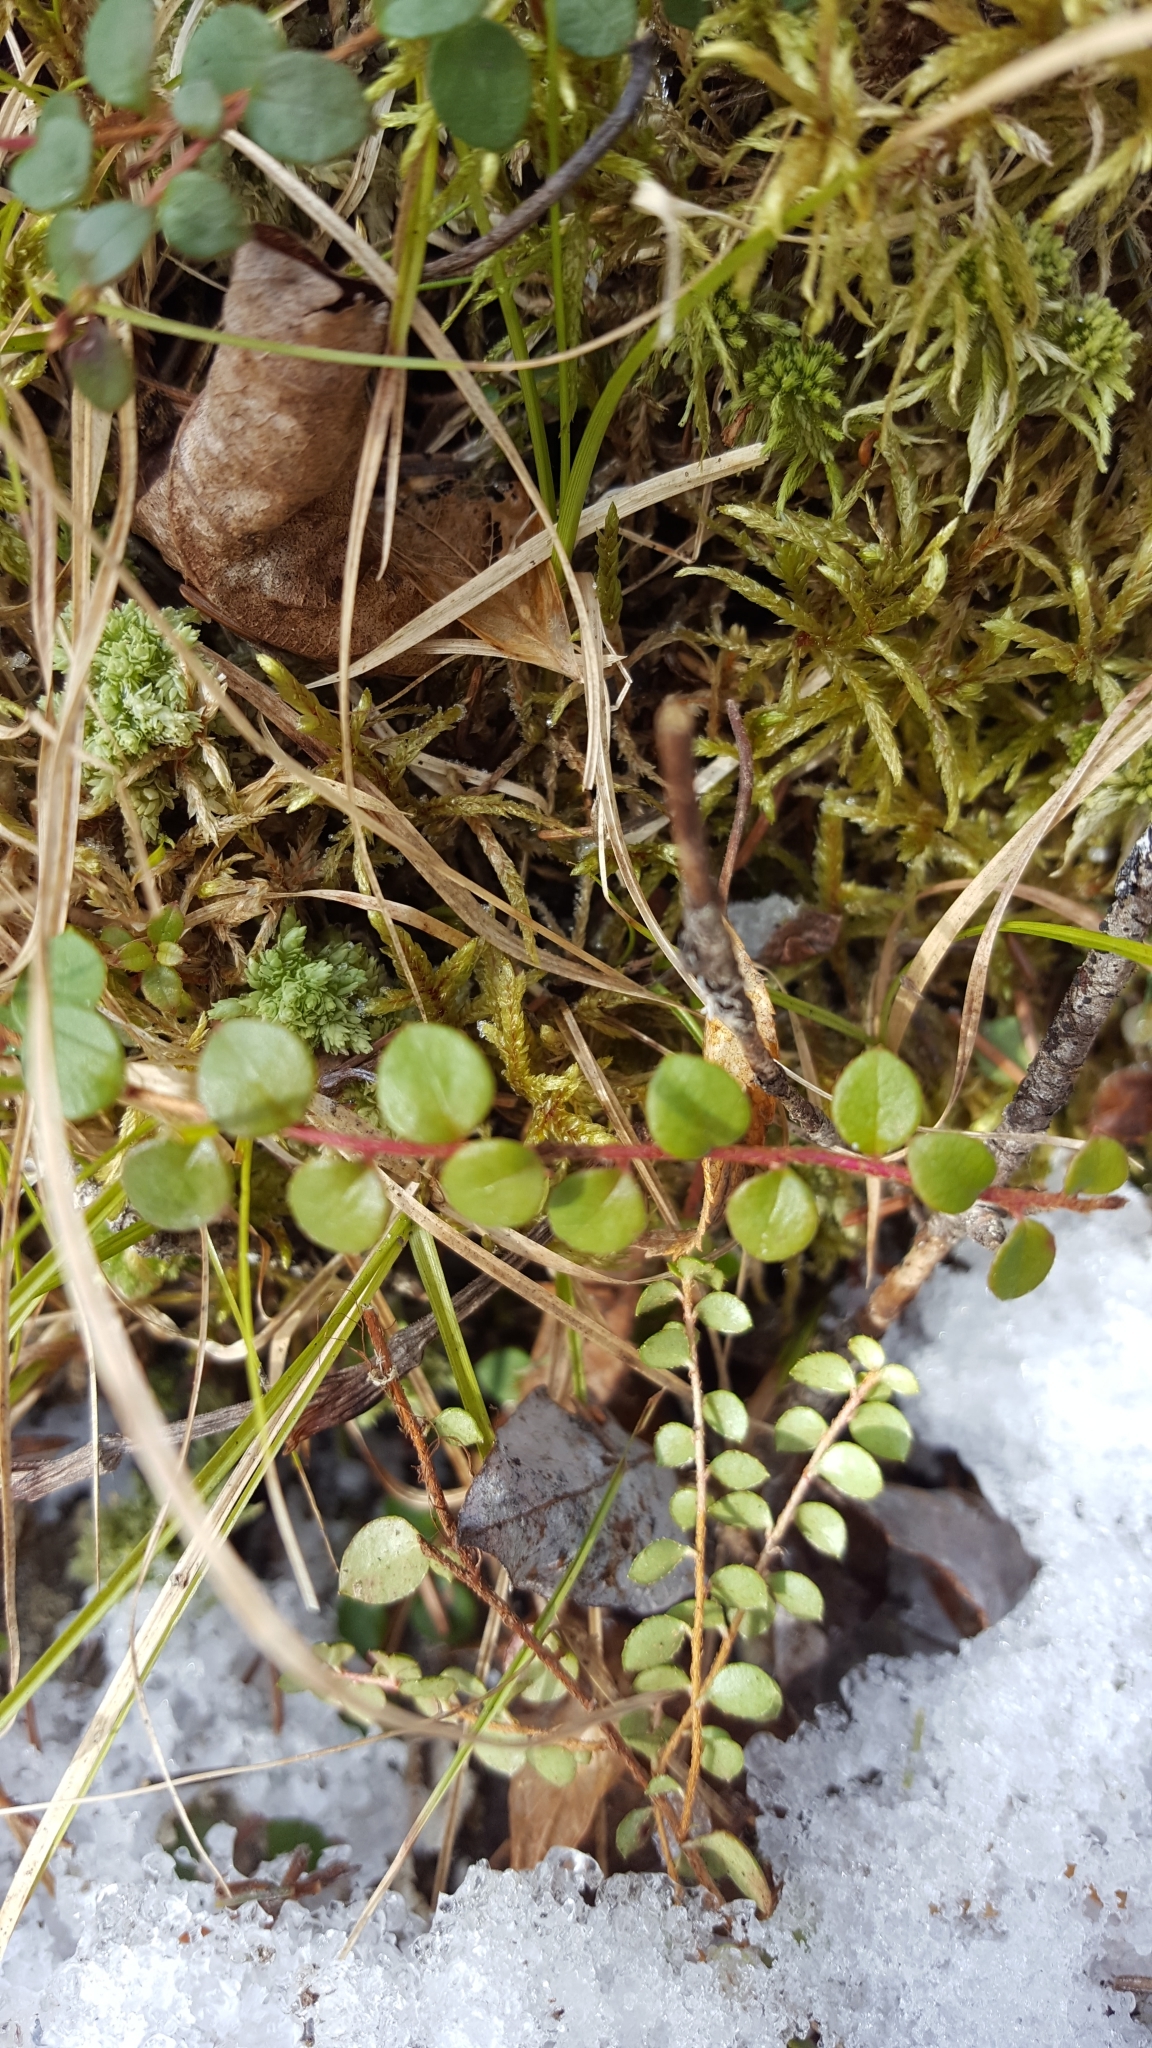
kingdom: Plantae
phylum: Tracheophyta
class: Magnoliopsida
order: Ericales
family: Ericaceae
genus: Gaultheria
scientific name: Gaultheria hispidula
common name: Cancer wintergreen
